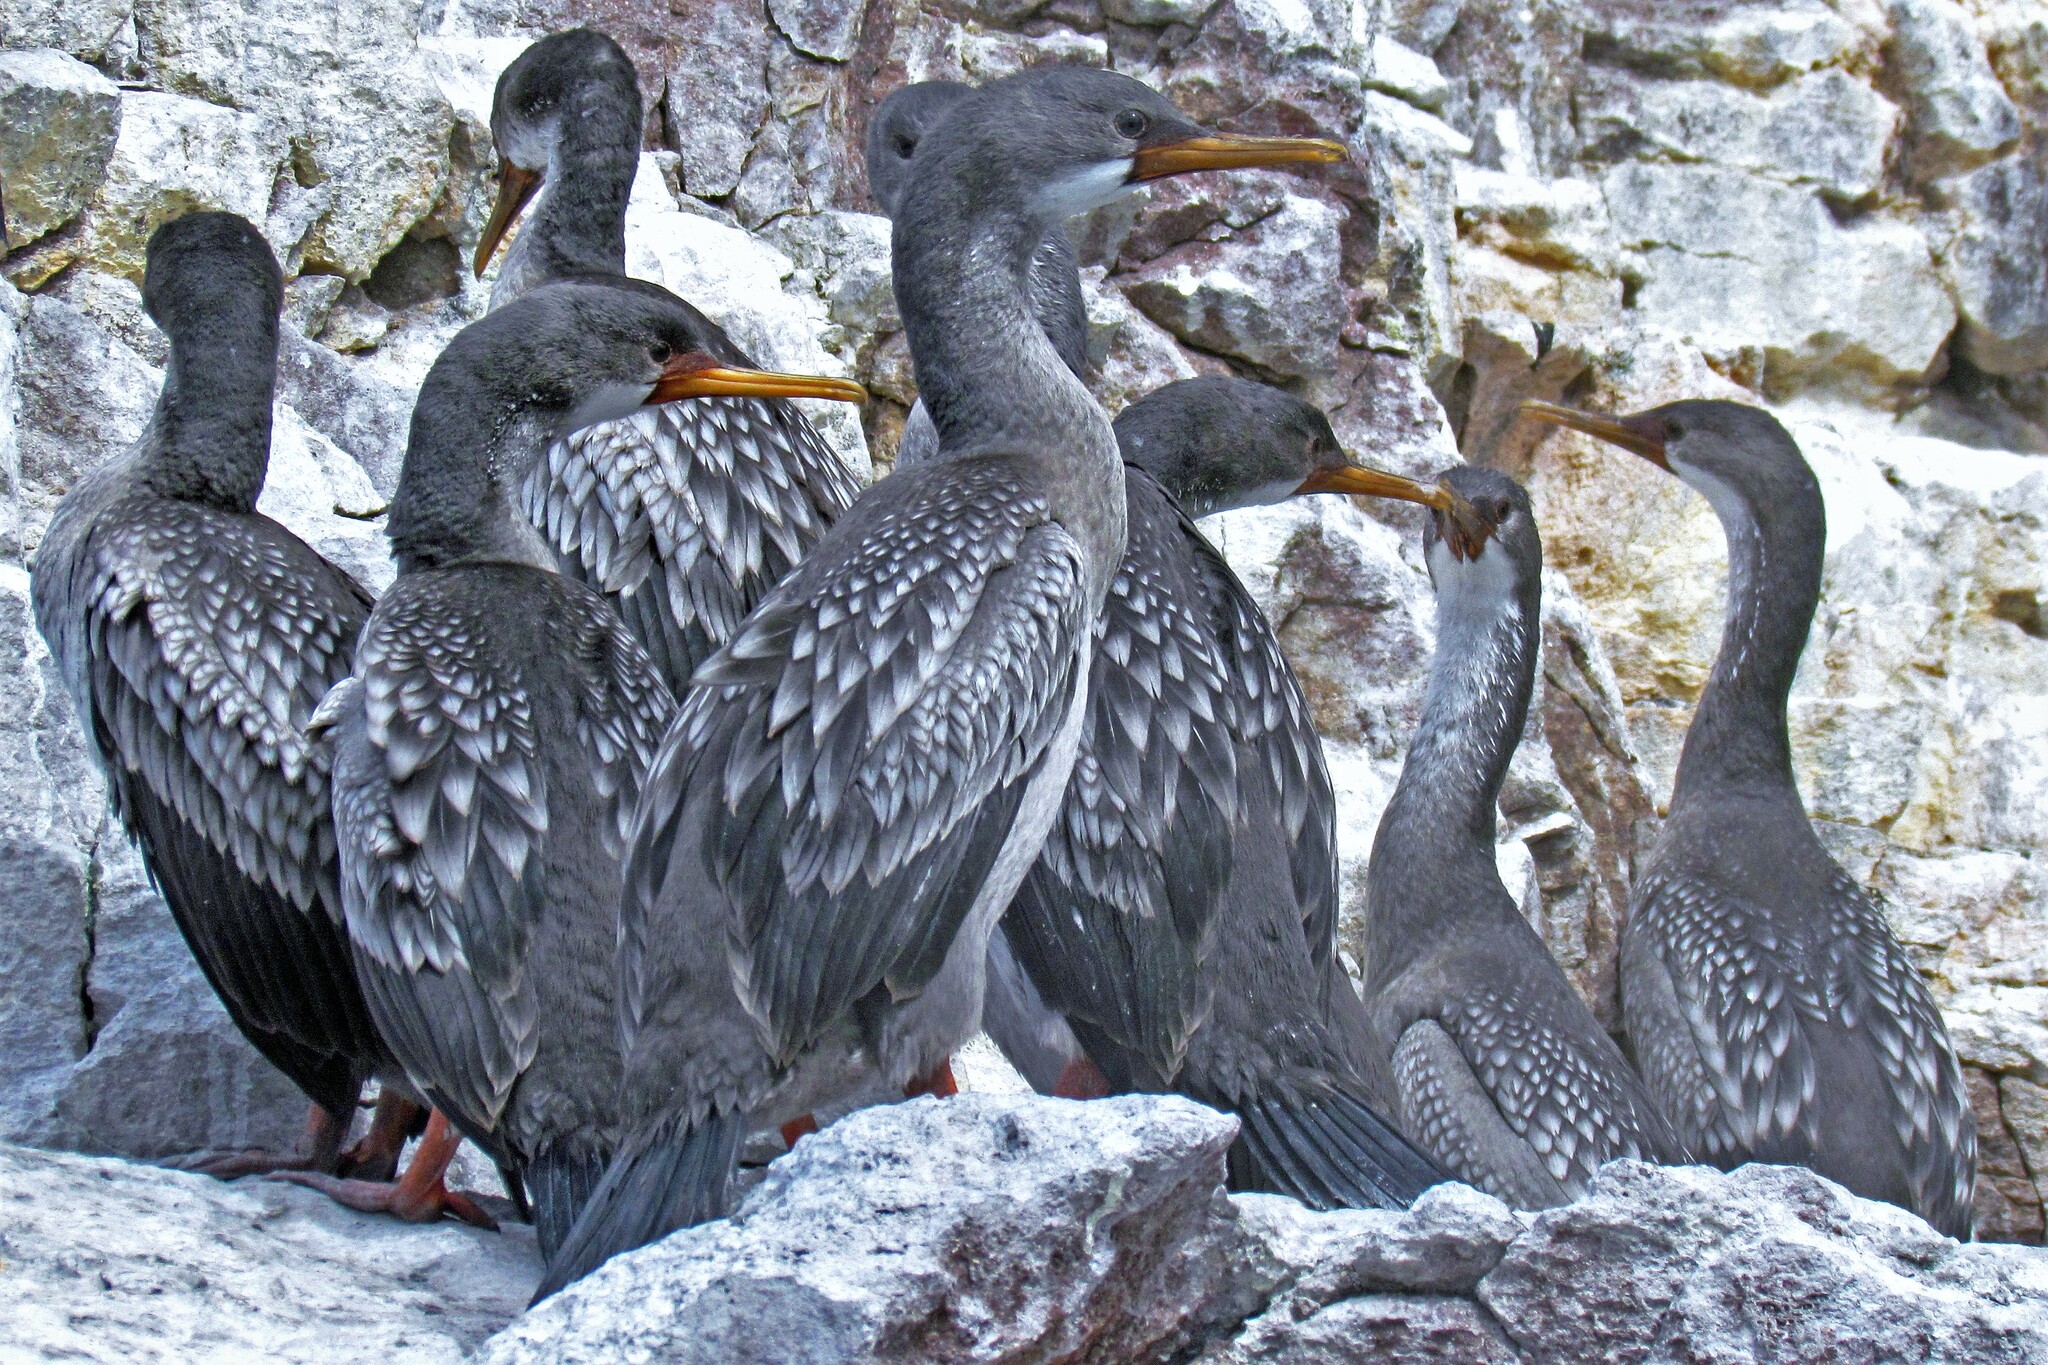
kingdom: Animalia
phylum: Chordata
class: Aves
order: Suliformes
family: Phalacrocoracidae
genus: Phalacrocorax
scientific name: Phalacrocorax gaimardi
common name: Red-legged cormorant
